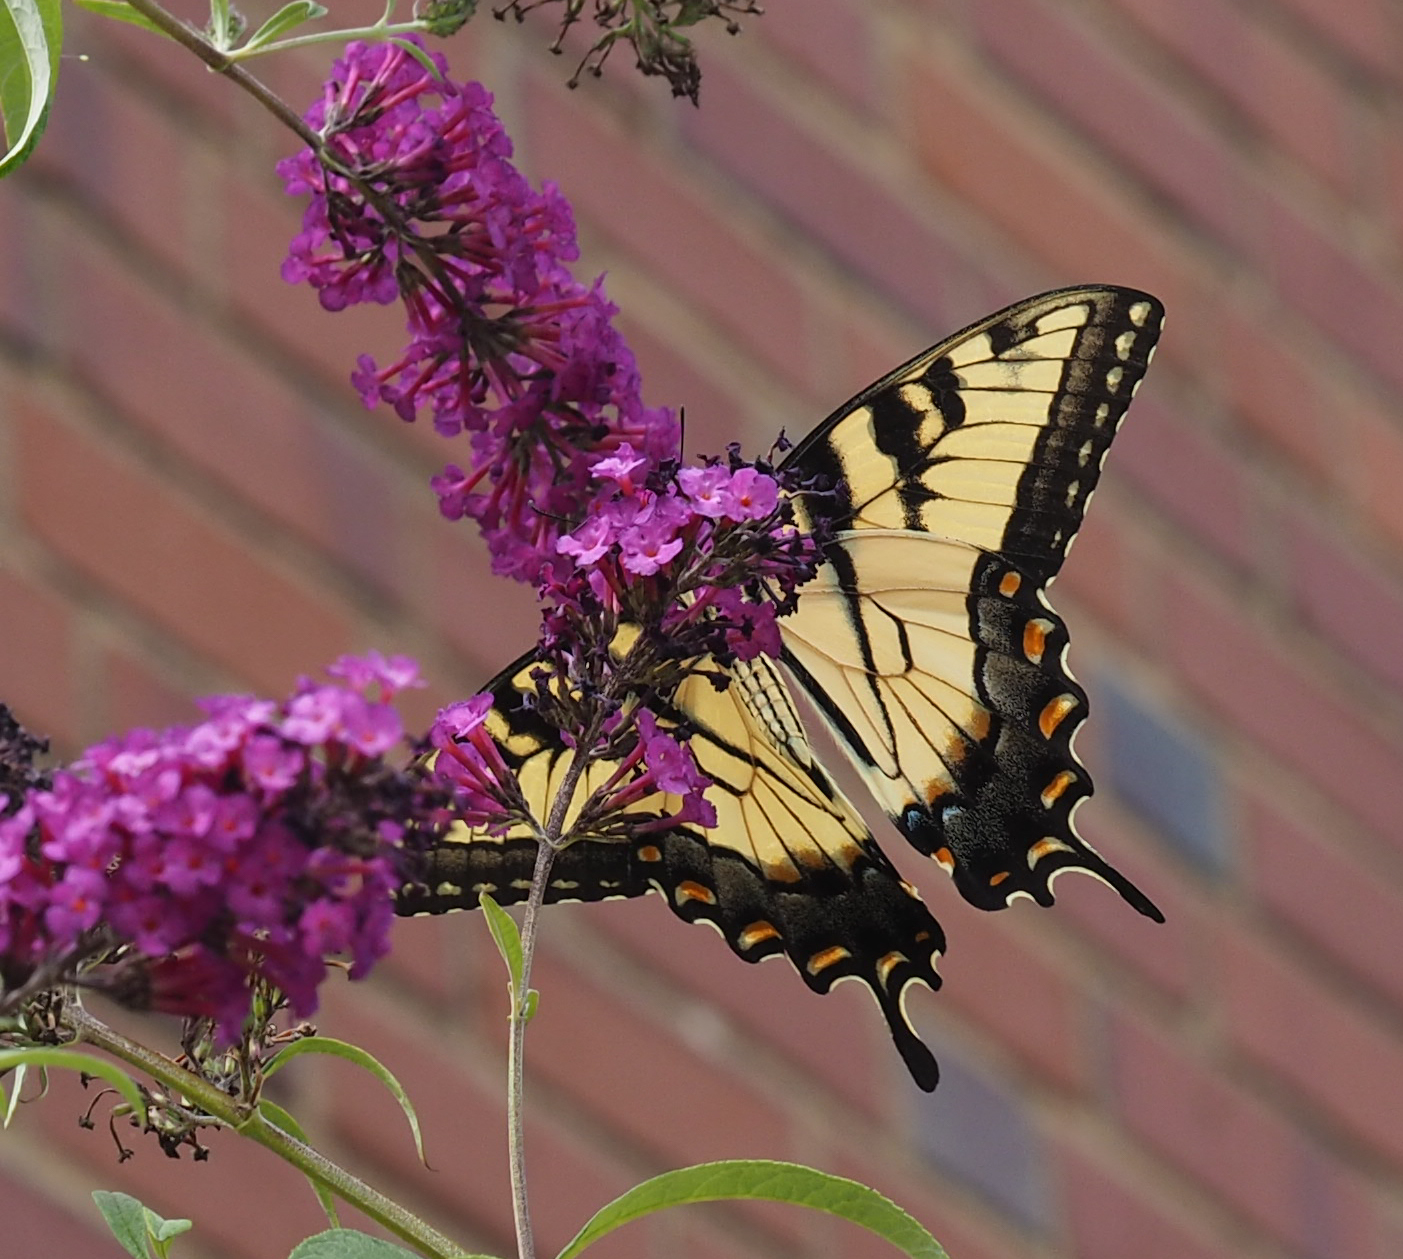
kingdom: Animalia
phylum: Arthropoda
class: Insecta
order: Lepidoptera
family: Papilionidae
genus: Papilio
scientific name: Papilio glaucus
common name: Tiger swallowtail
